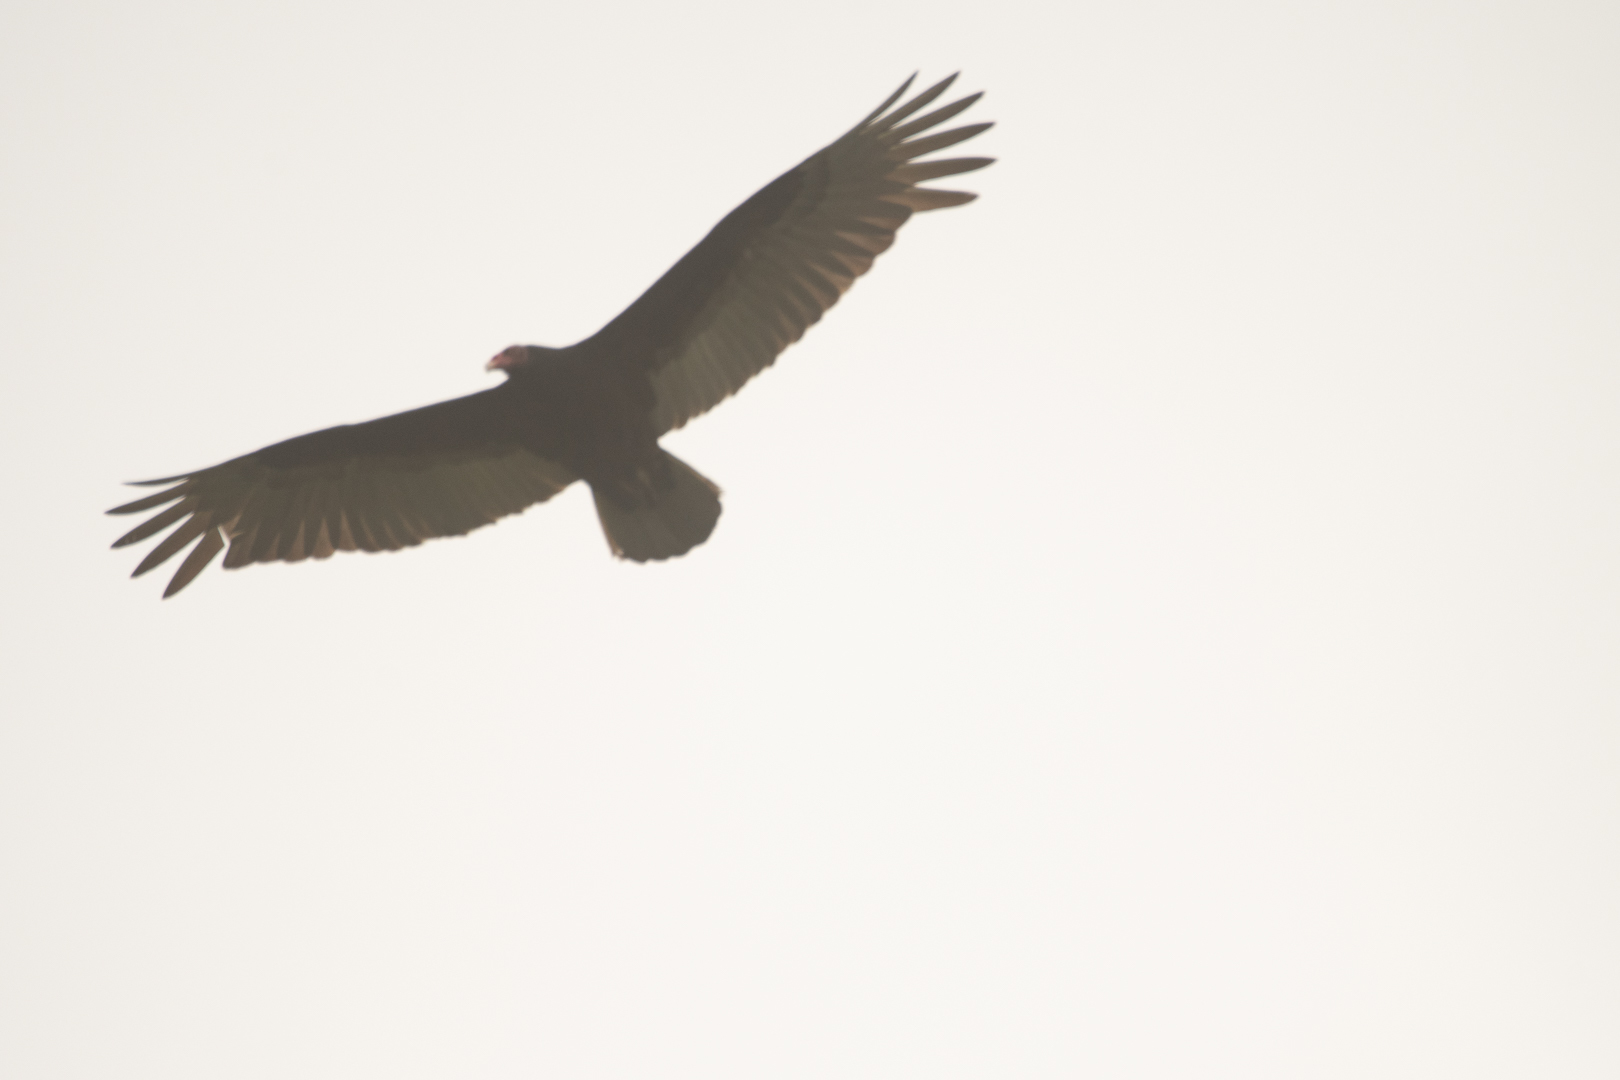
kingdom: Animalia
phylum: Chordata
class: Aves
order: Accipitriformes
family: Cathartidae
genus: Cathartes
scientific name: Cathartes aura
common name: Turkey vulture
